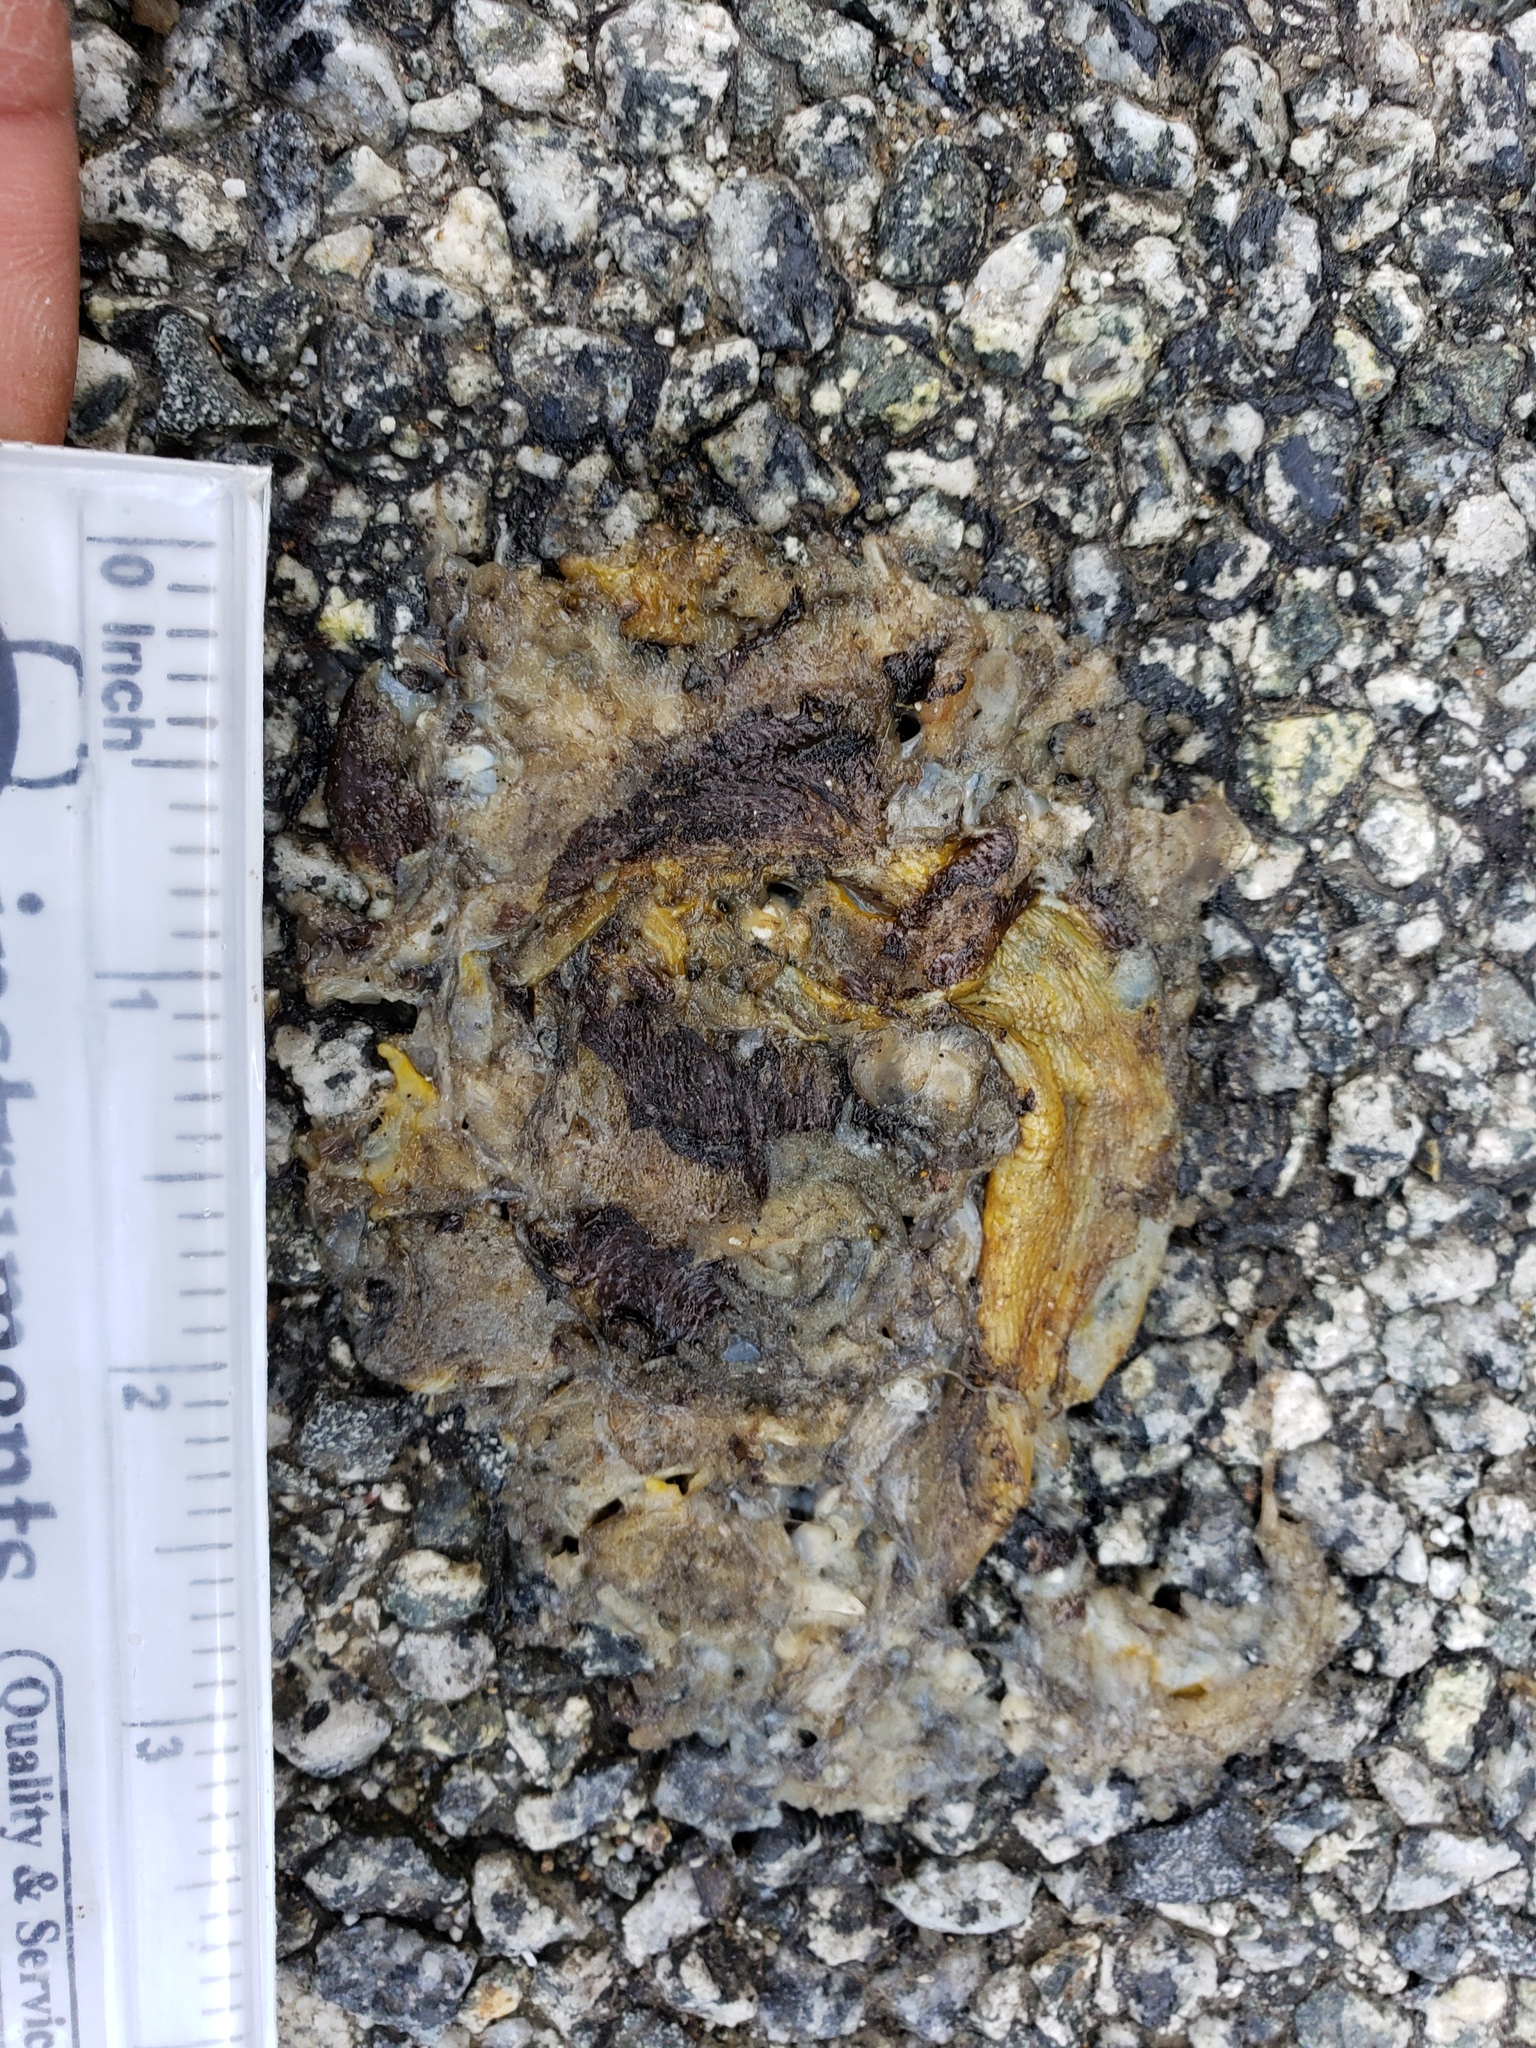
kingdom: Animalia
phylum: Chordata
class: Amphibia
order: Caudata
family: Salamandridae
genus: Taricha
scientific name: Taricha
